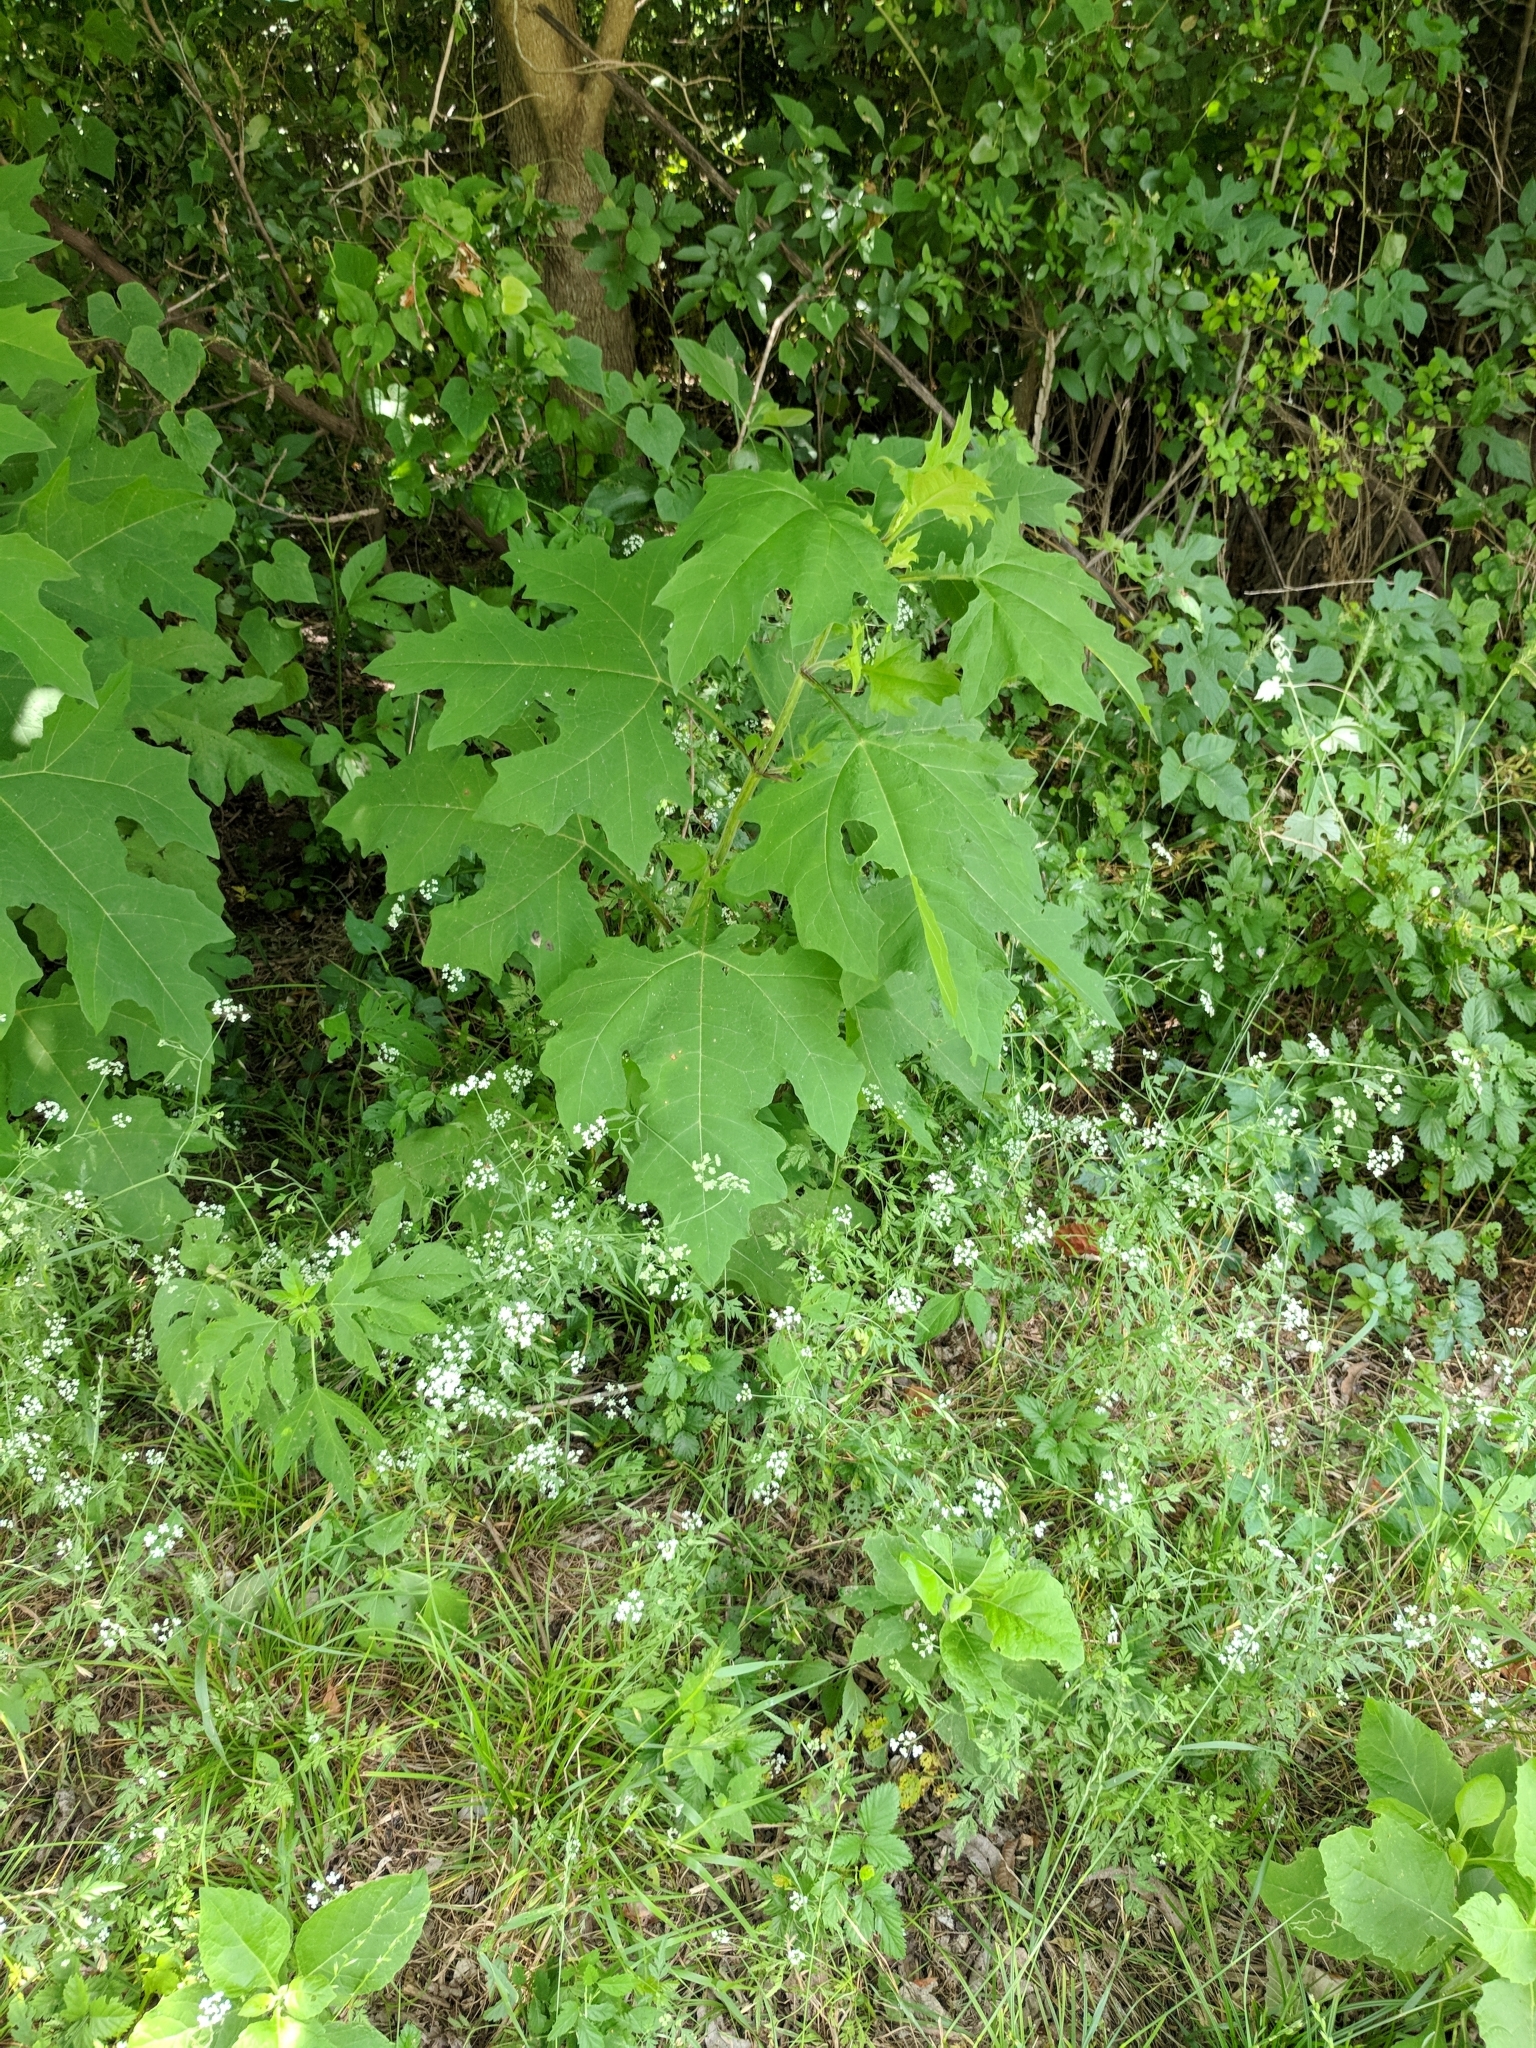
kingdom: Plantae
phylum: Tracheophyta
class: Magnoliopsida
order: Asterales
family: Asteraceae
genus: Smallanthus
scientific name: Smallanthus uvedalia
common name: Bear's-foot
